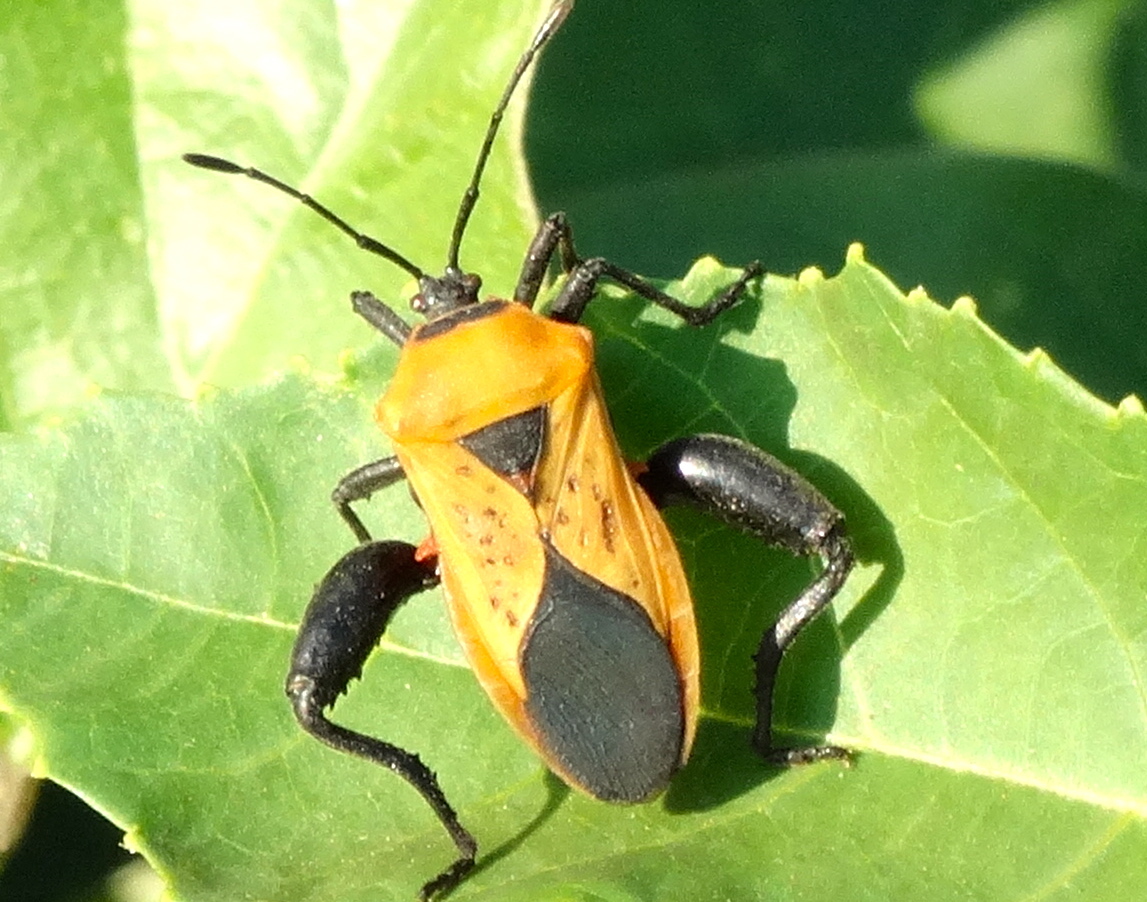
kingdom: Animalia
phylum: Arthropoda
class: Insecta
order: Hemiptera
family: Coreidae
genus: Sagotylus
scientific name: Sagotylus confluens
